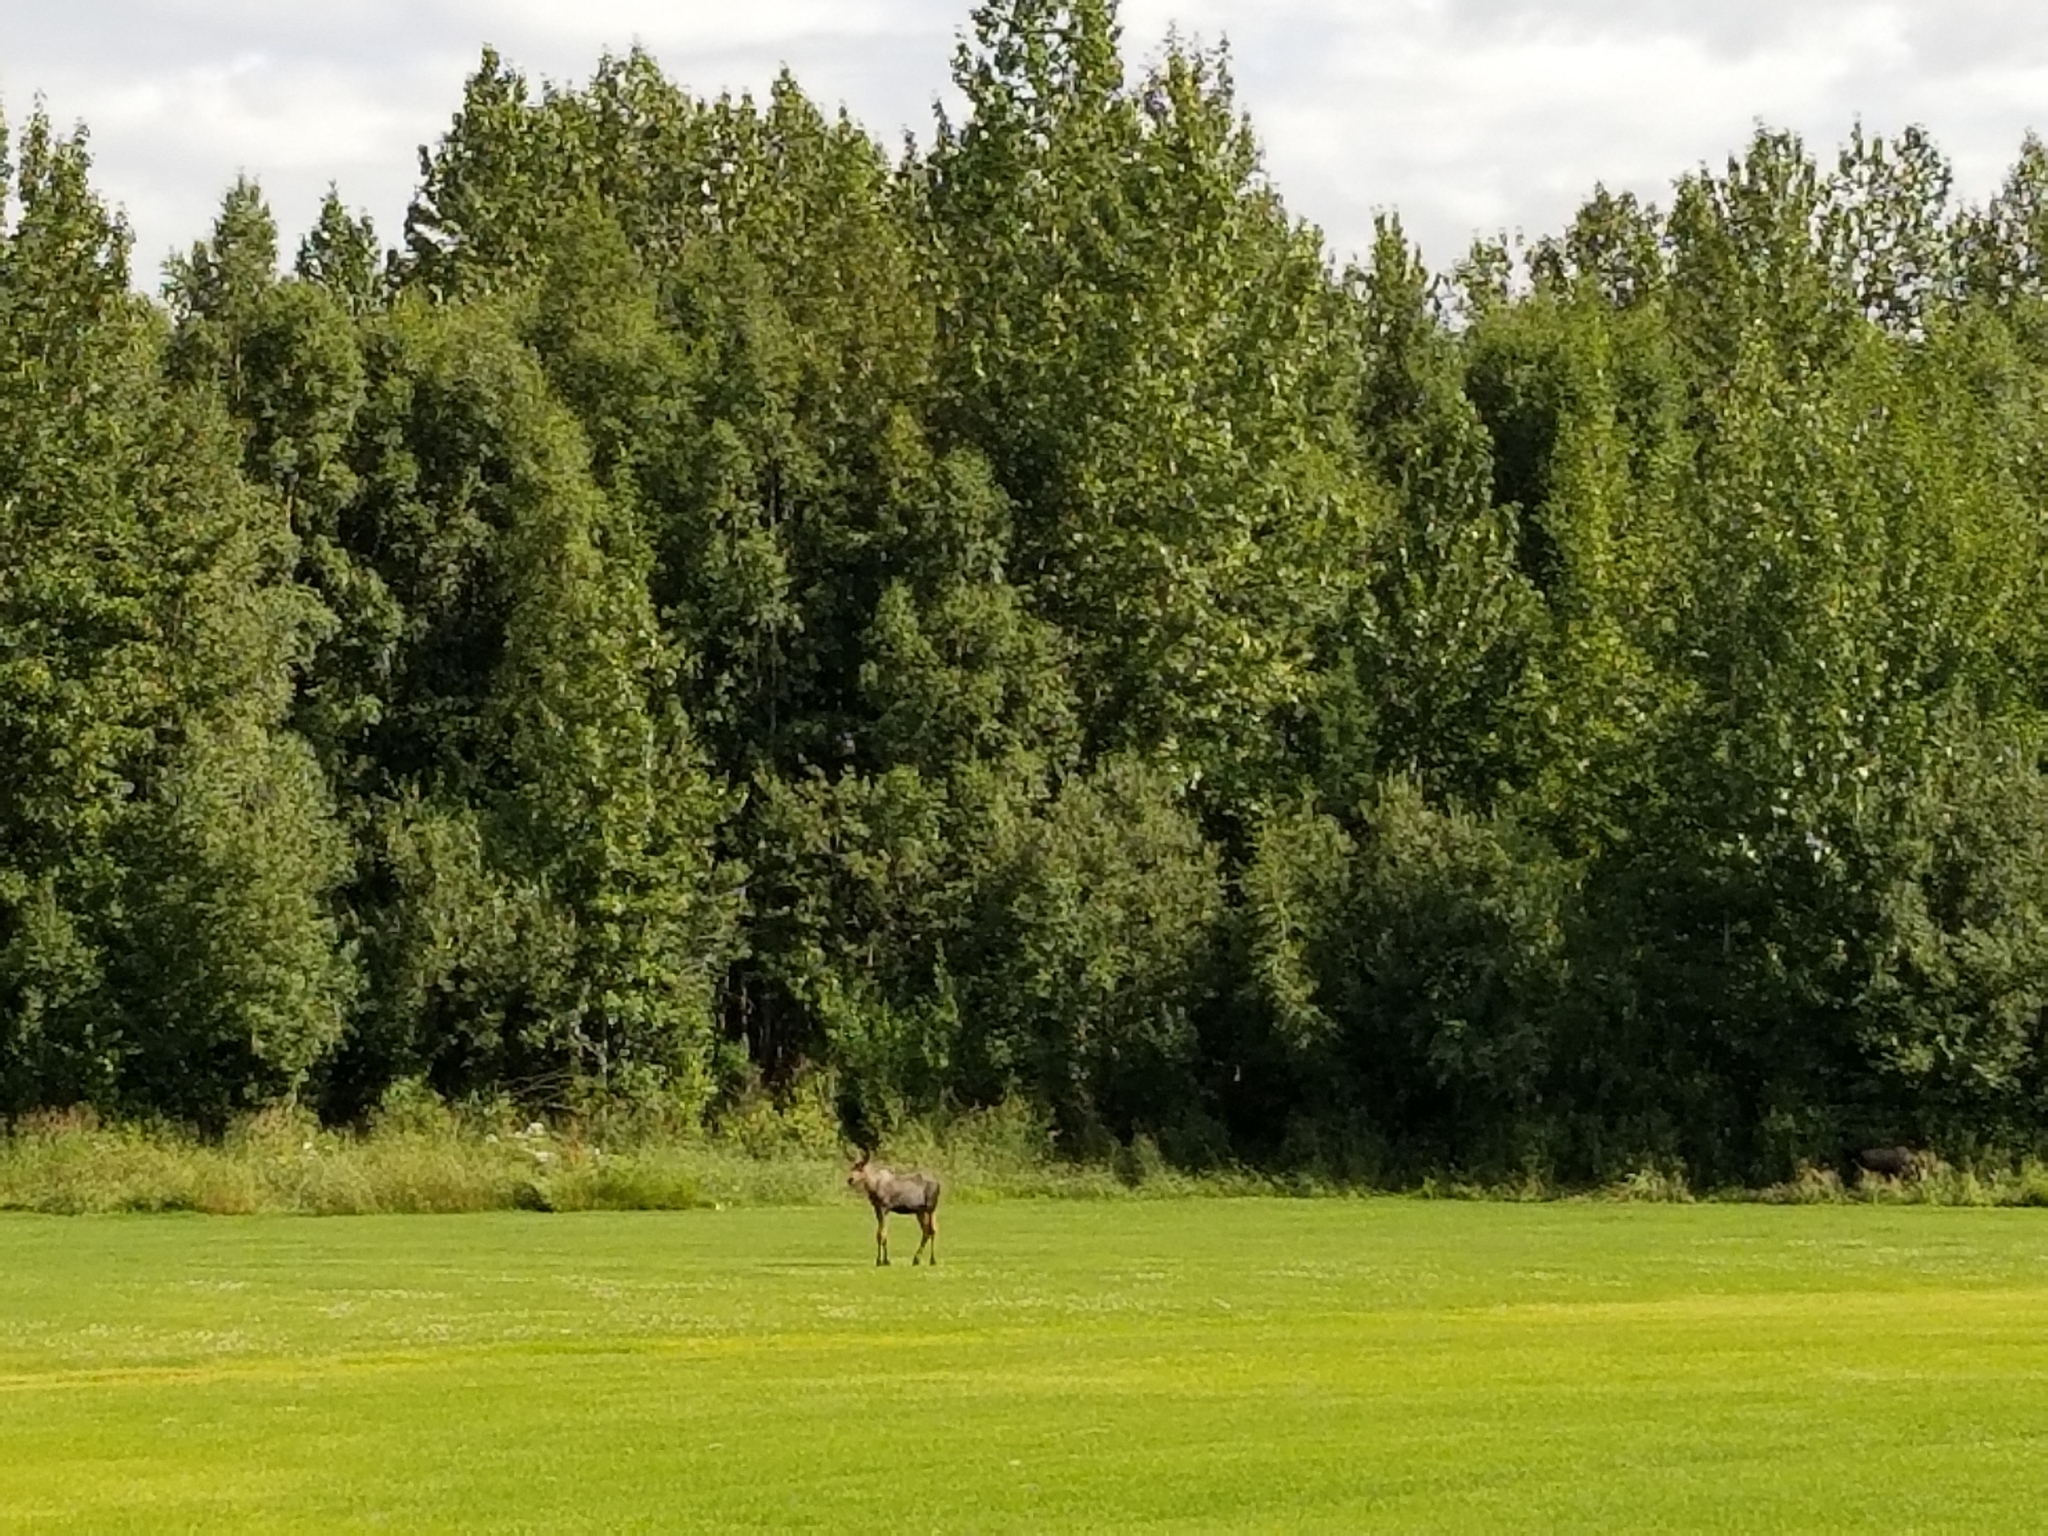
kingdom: Animalia
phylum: Chordata
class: Mammalia
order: Artiodactyla
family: Cervidae
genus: Alces
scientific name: Alces alces
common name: Moose
